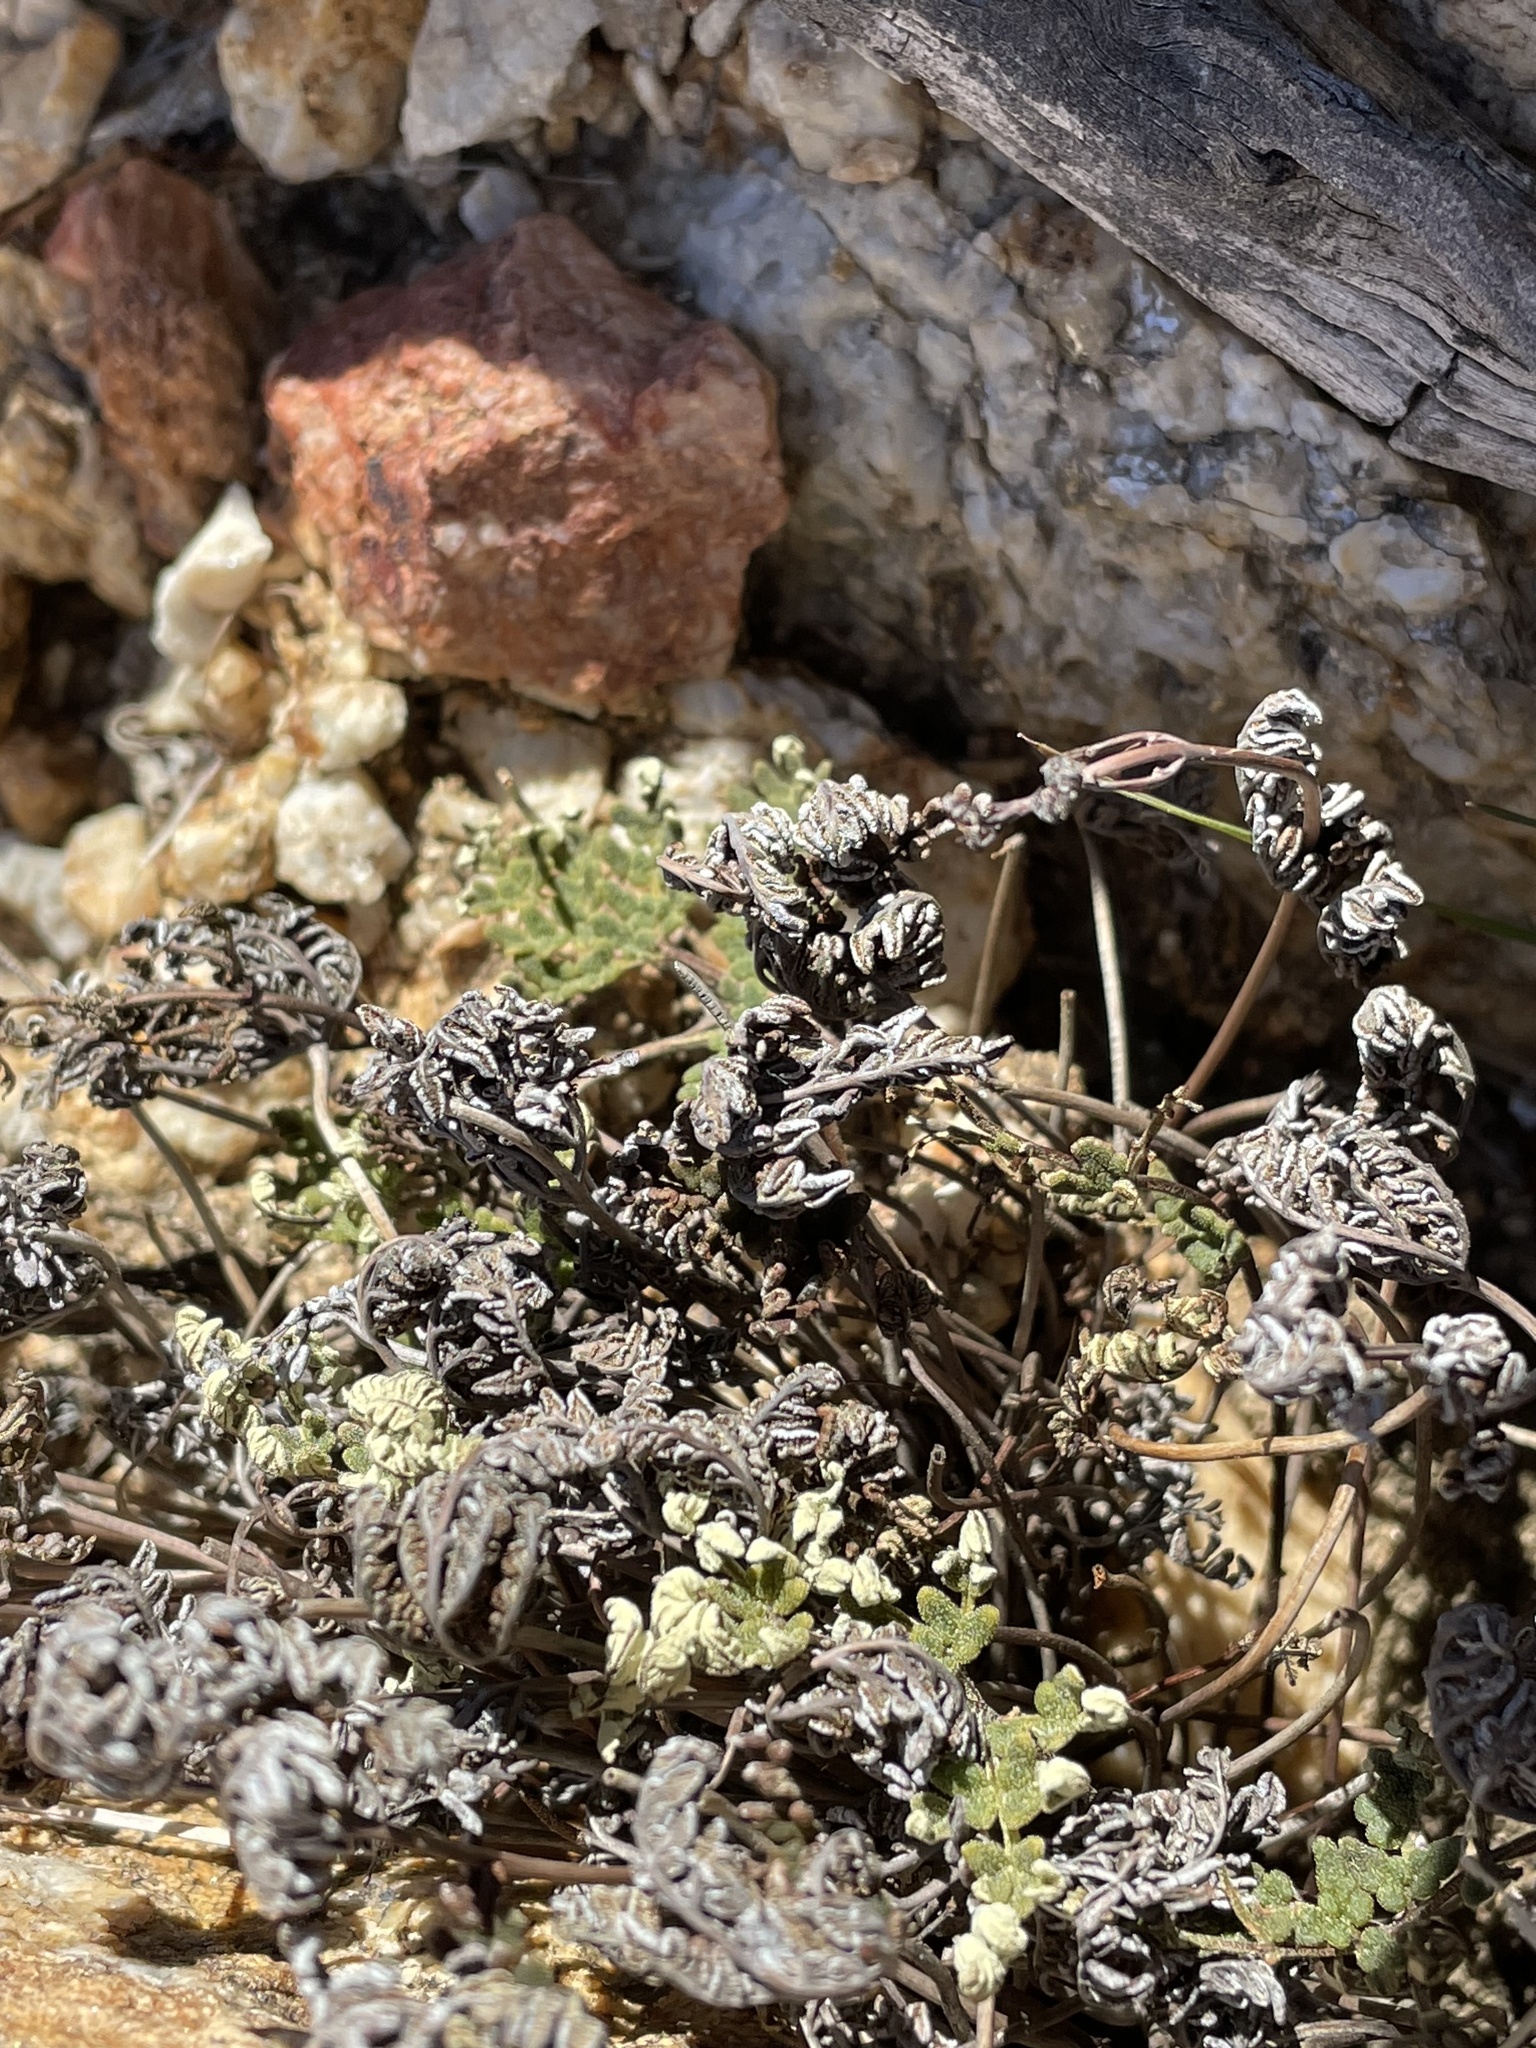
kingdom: Plantae
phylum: Tracheophyta
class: Polypodiopsida
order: Polypodiales
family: Pteridaceae
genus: Notholaena
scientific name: Notholaena californica
